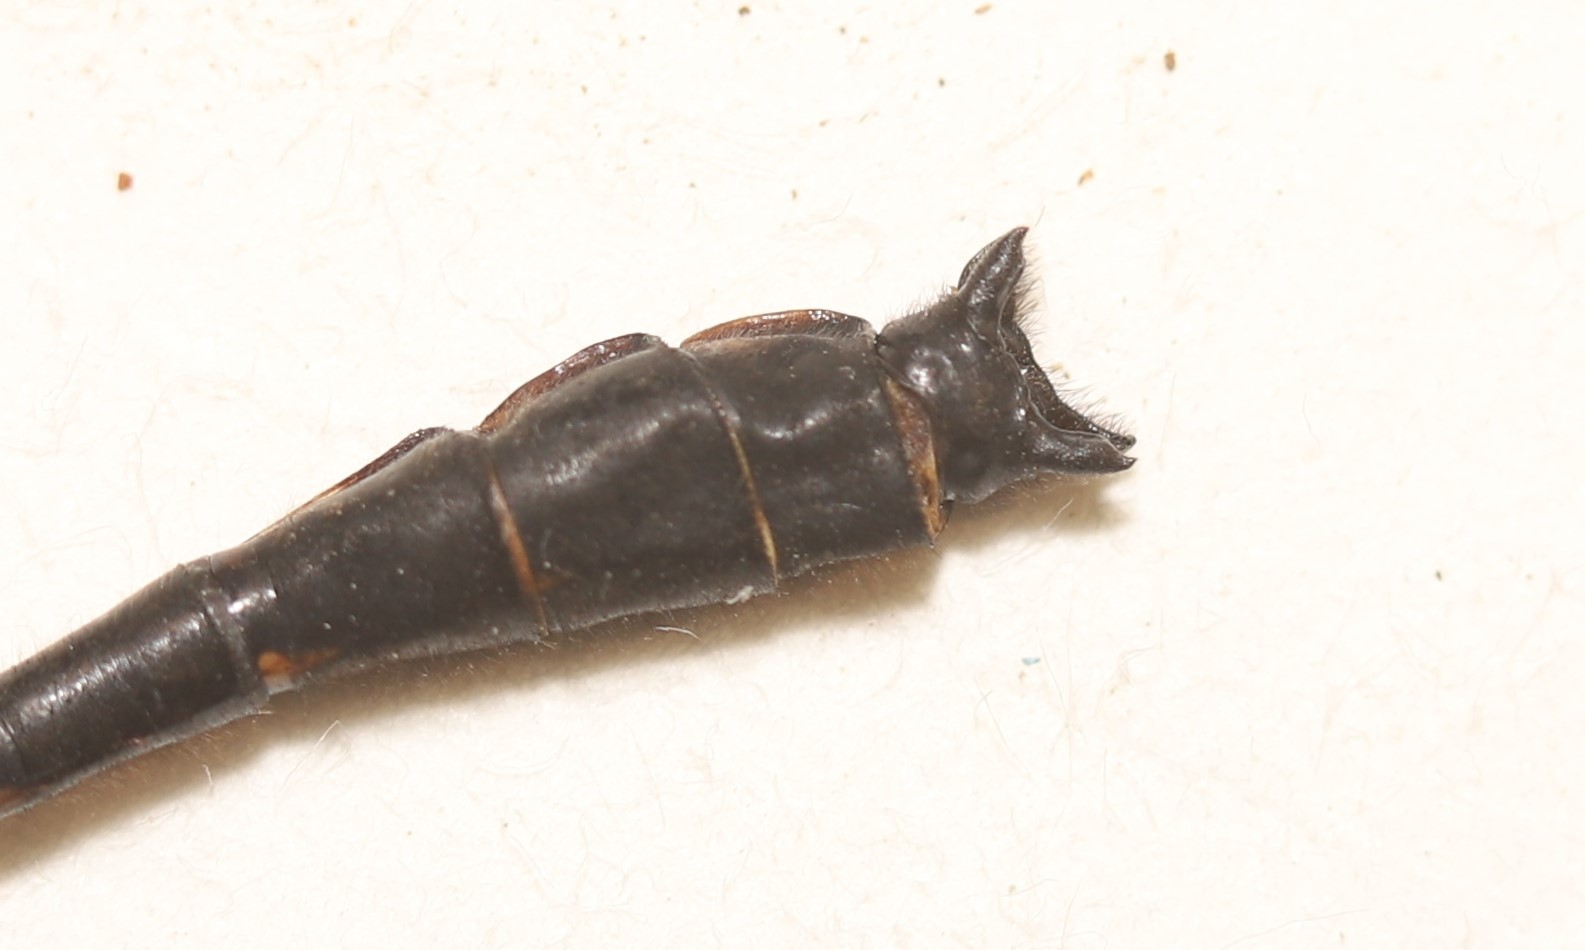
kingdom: Animalia
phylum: Arthropoda
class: Insecta
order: Odonata
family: Gomphidae
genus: Hylogomphus
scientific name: Hylogomphus adelphus
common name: Mustached clubtail
